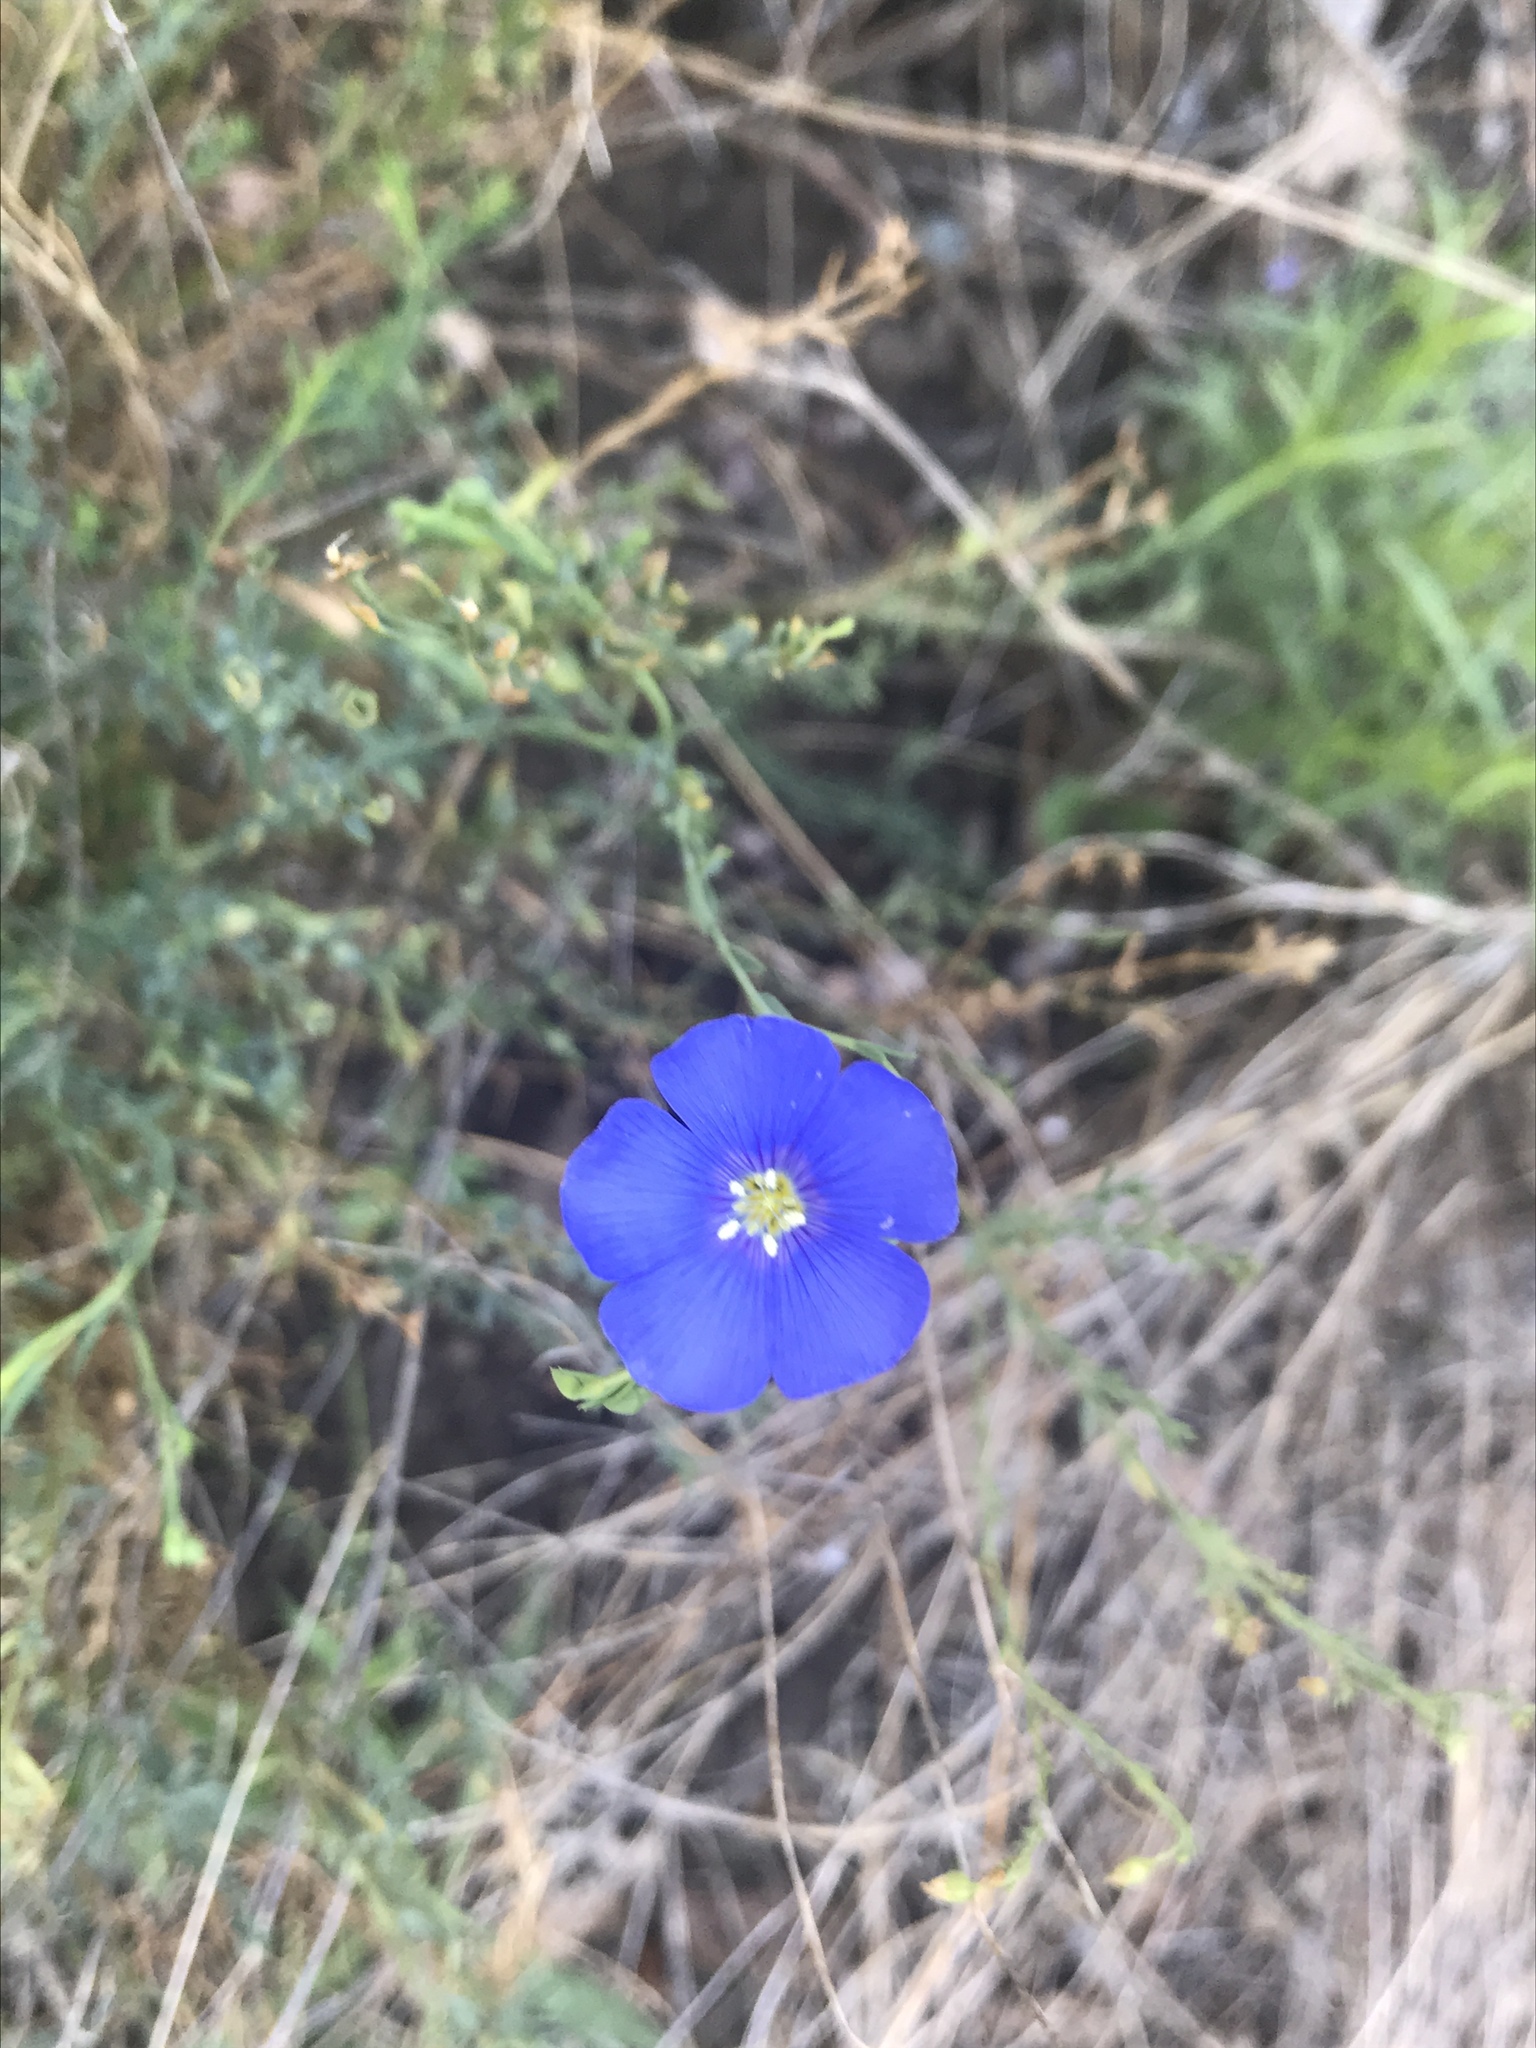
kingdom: Plantae
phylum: Tracheophyta
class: Magnoliopsida
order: Malpighiales
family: Linaceae
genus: Linum
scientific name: Linum lewisii
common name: Prairie flax
